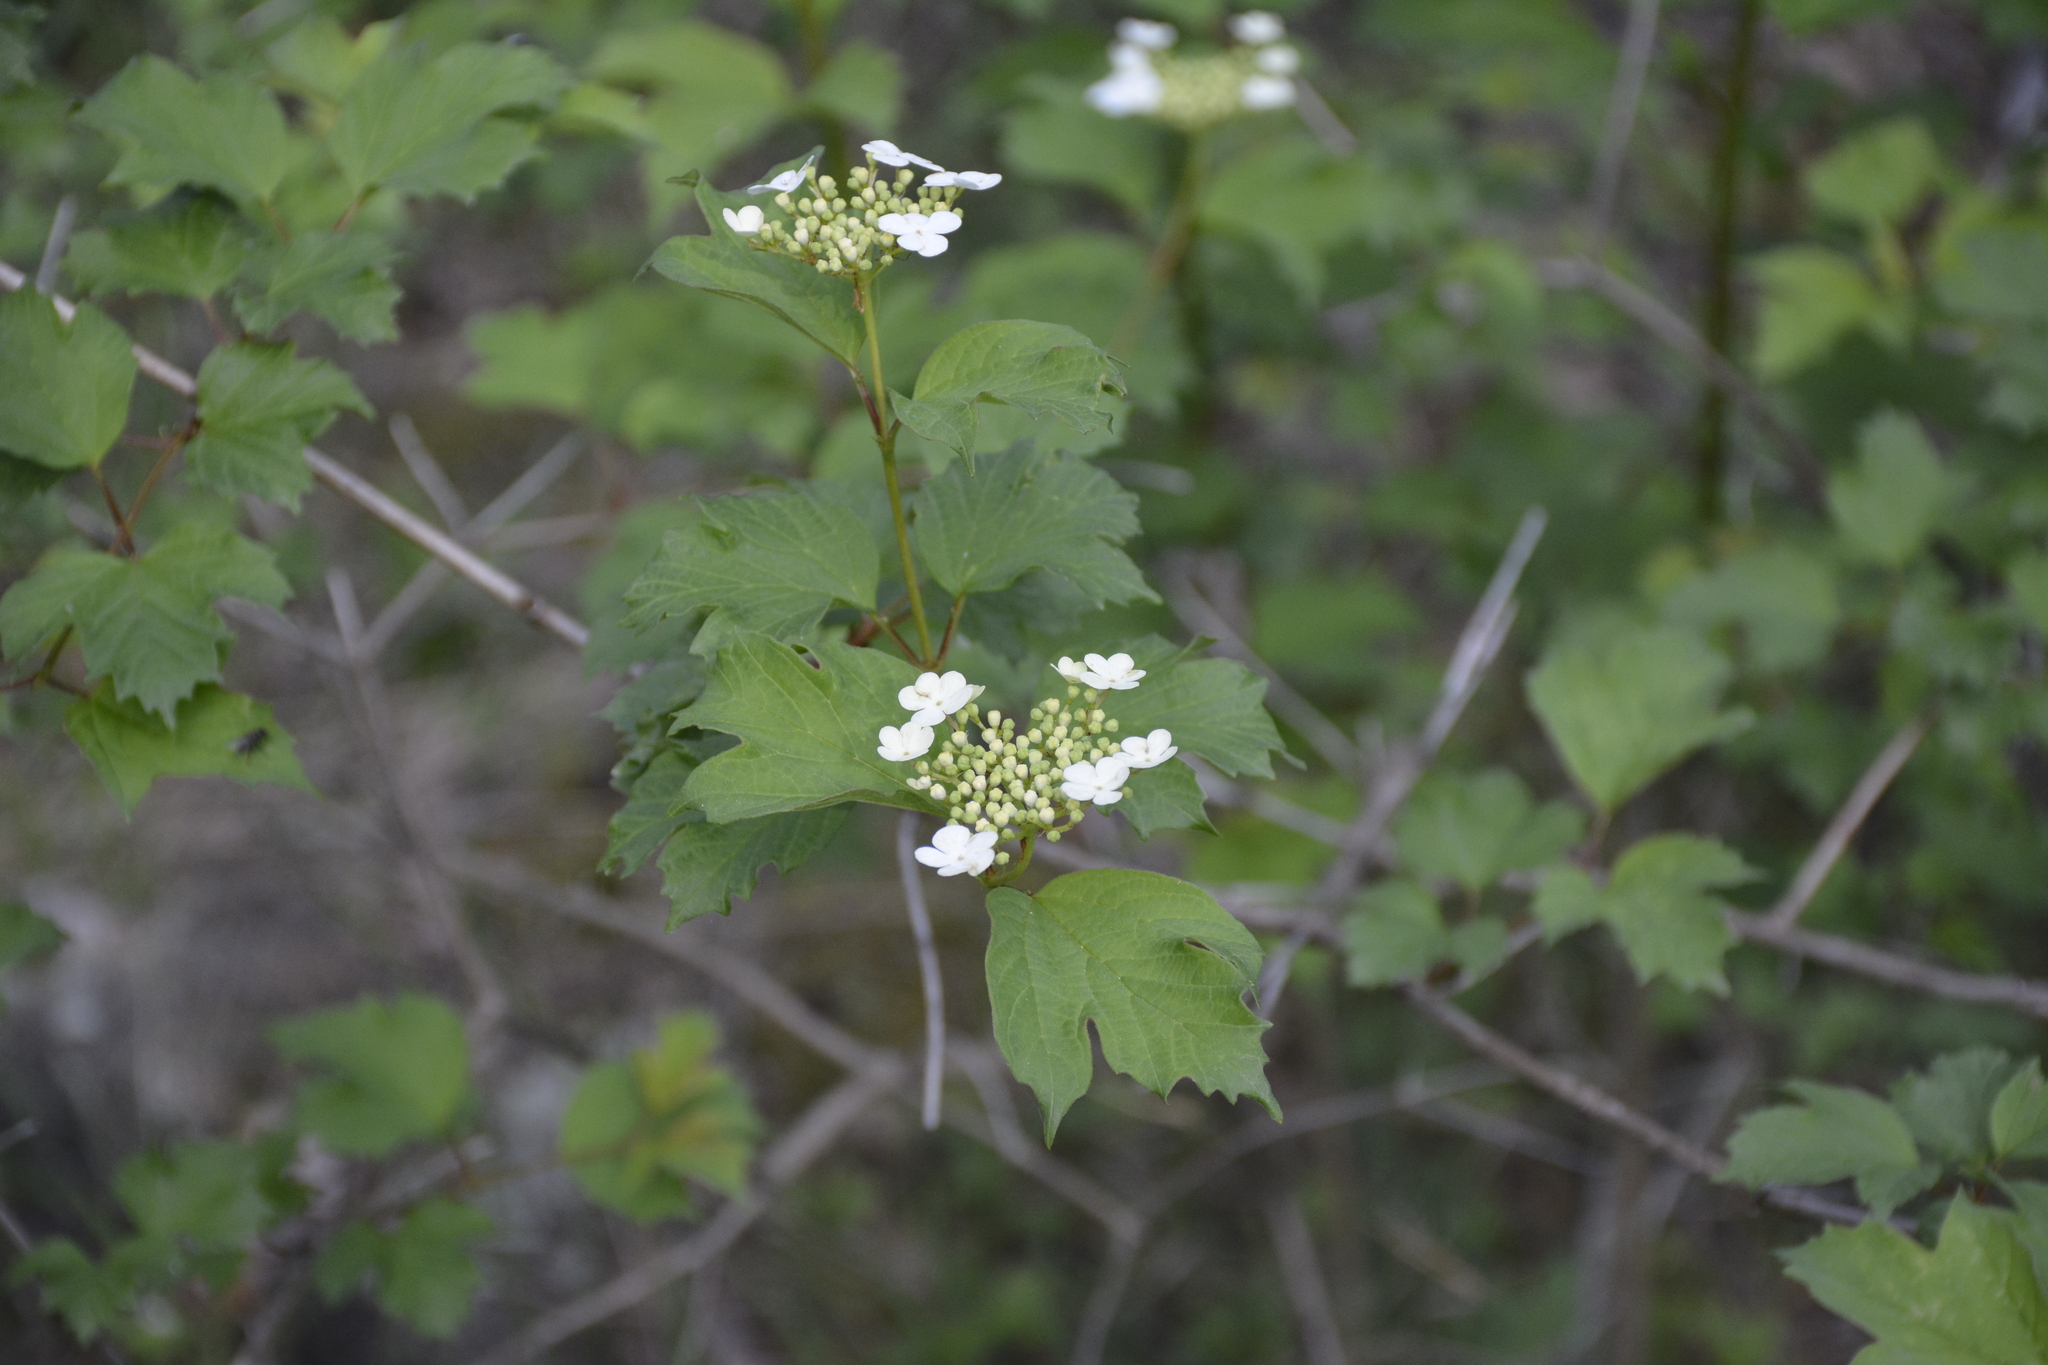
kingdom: Plantae
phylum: Tracheophyta
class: Magnoliopsida
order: Dipsacales
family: Viburnaceae
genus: Viburnum
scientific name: Viburnum opulus
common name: Guelder-rose
